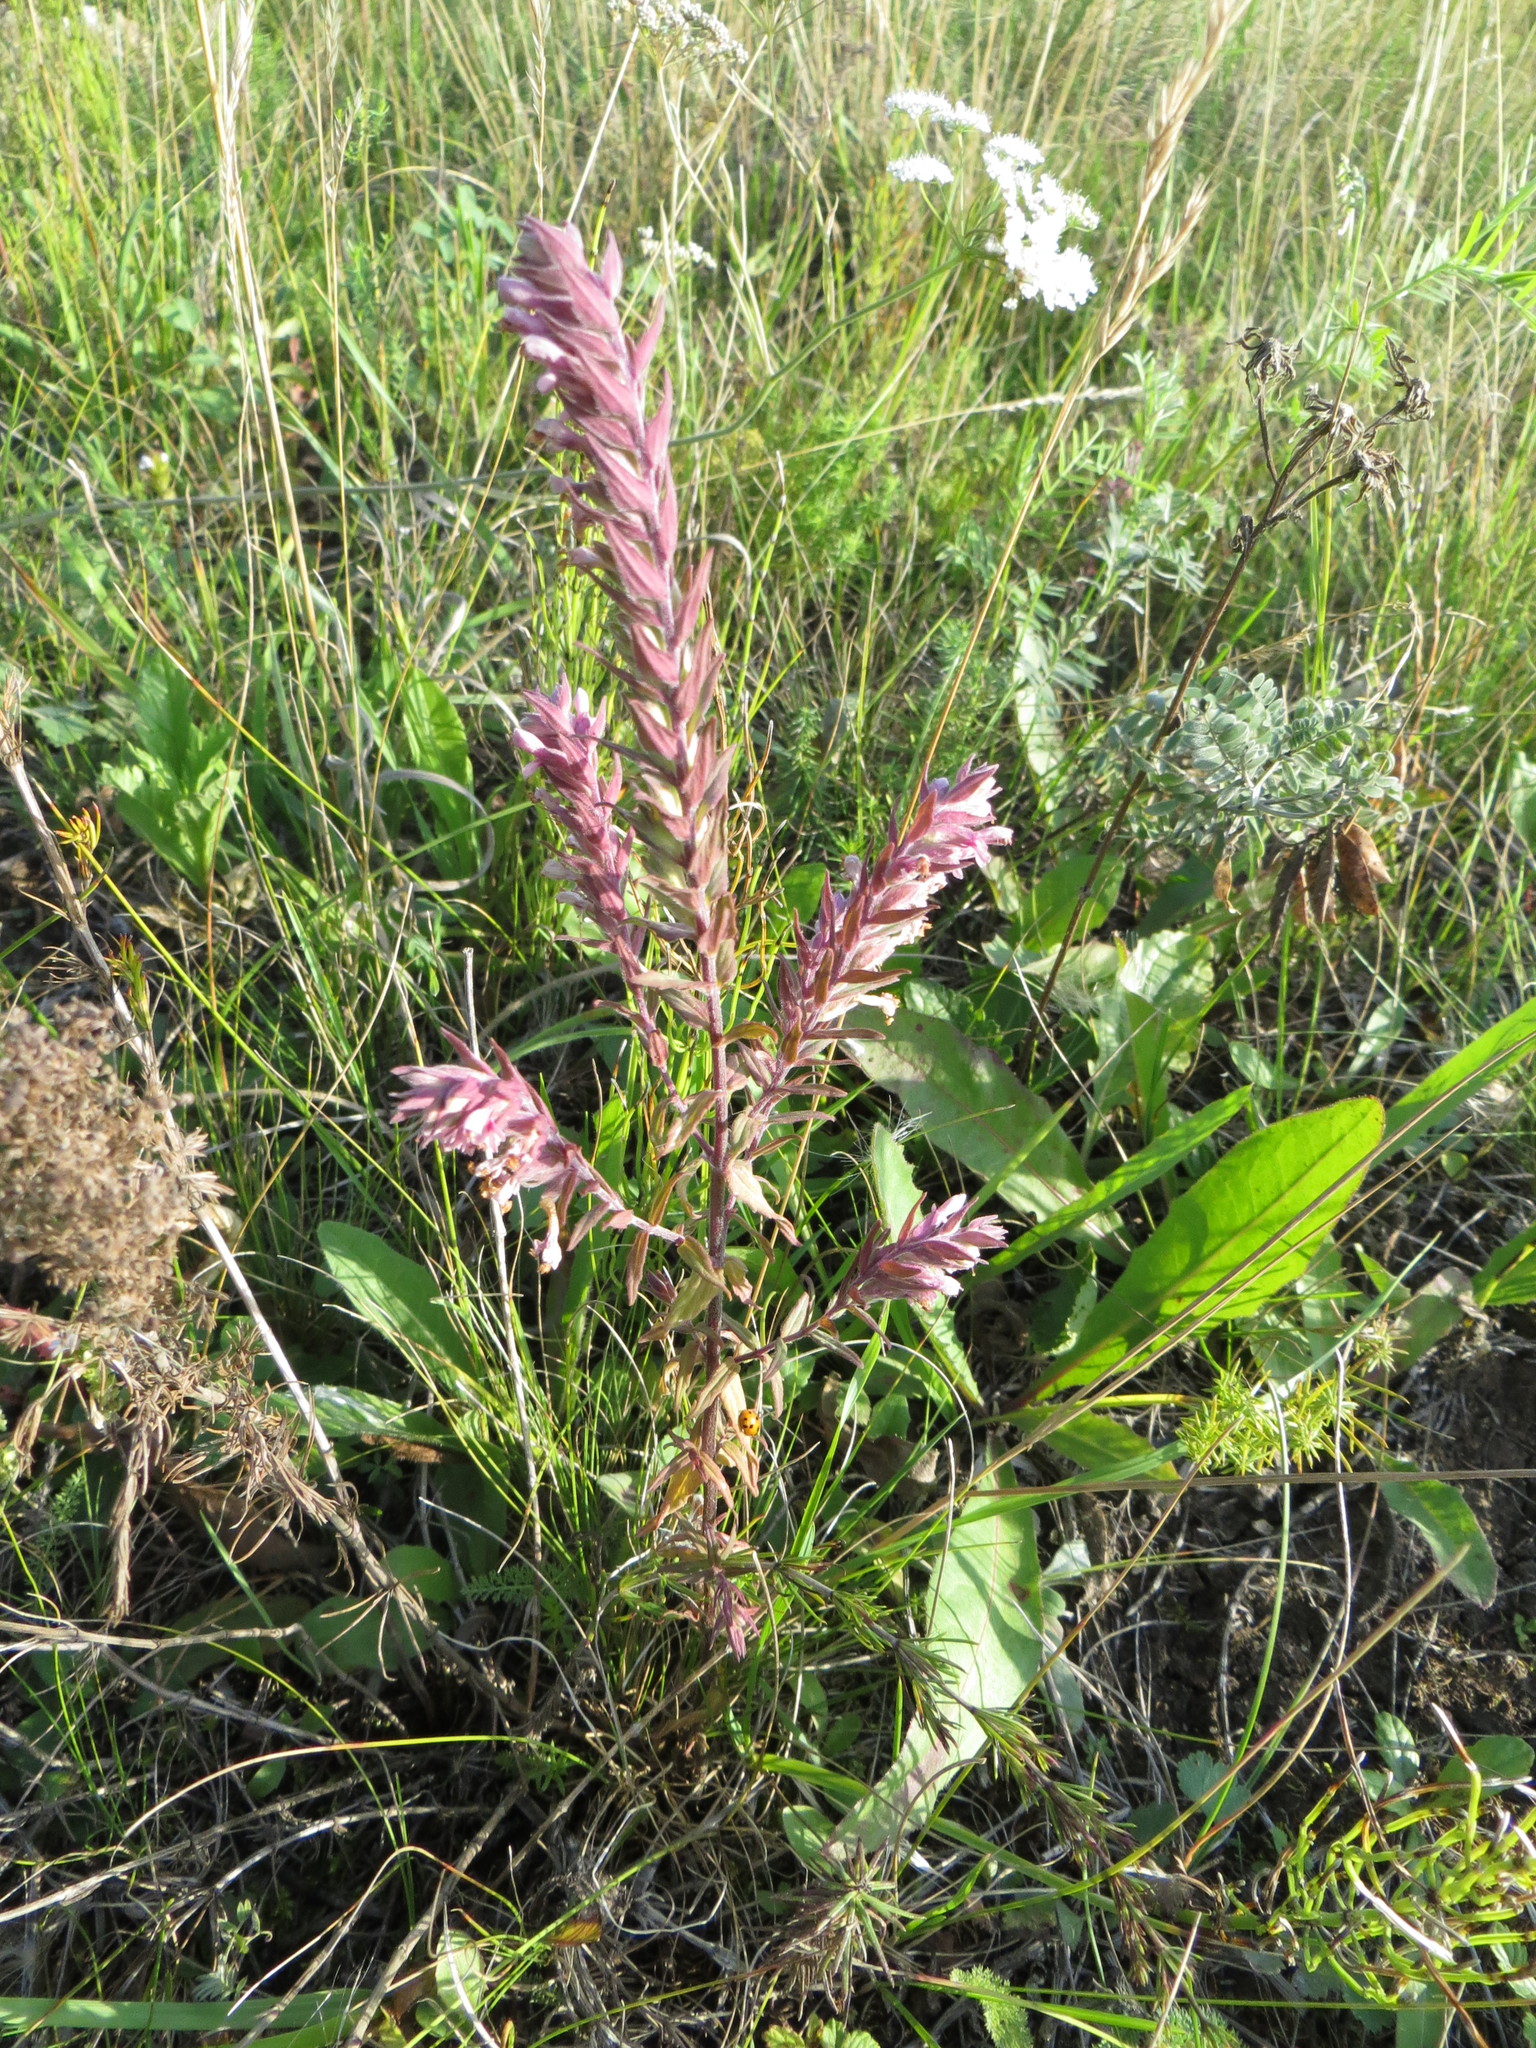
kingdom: Plantae
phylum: Tracheophyta
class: Magnoliopsida
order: Lamiales
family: Orobanchaceae
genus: Odontites
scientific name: Odontites vulgaris
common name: Broomrape
